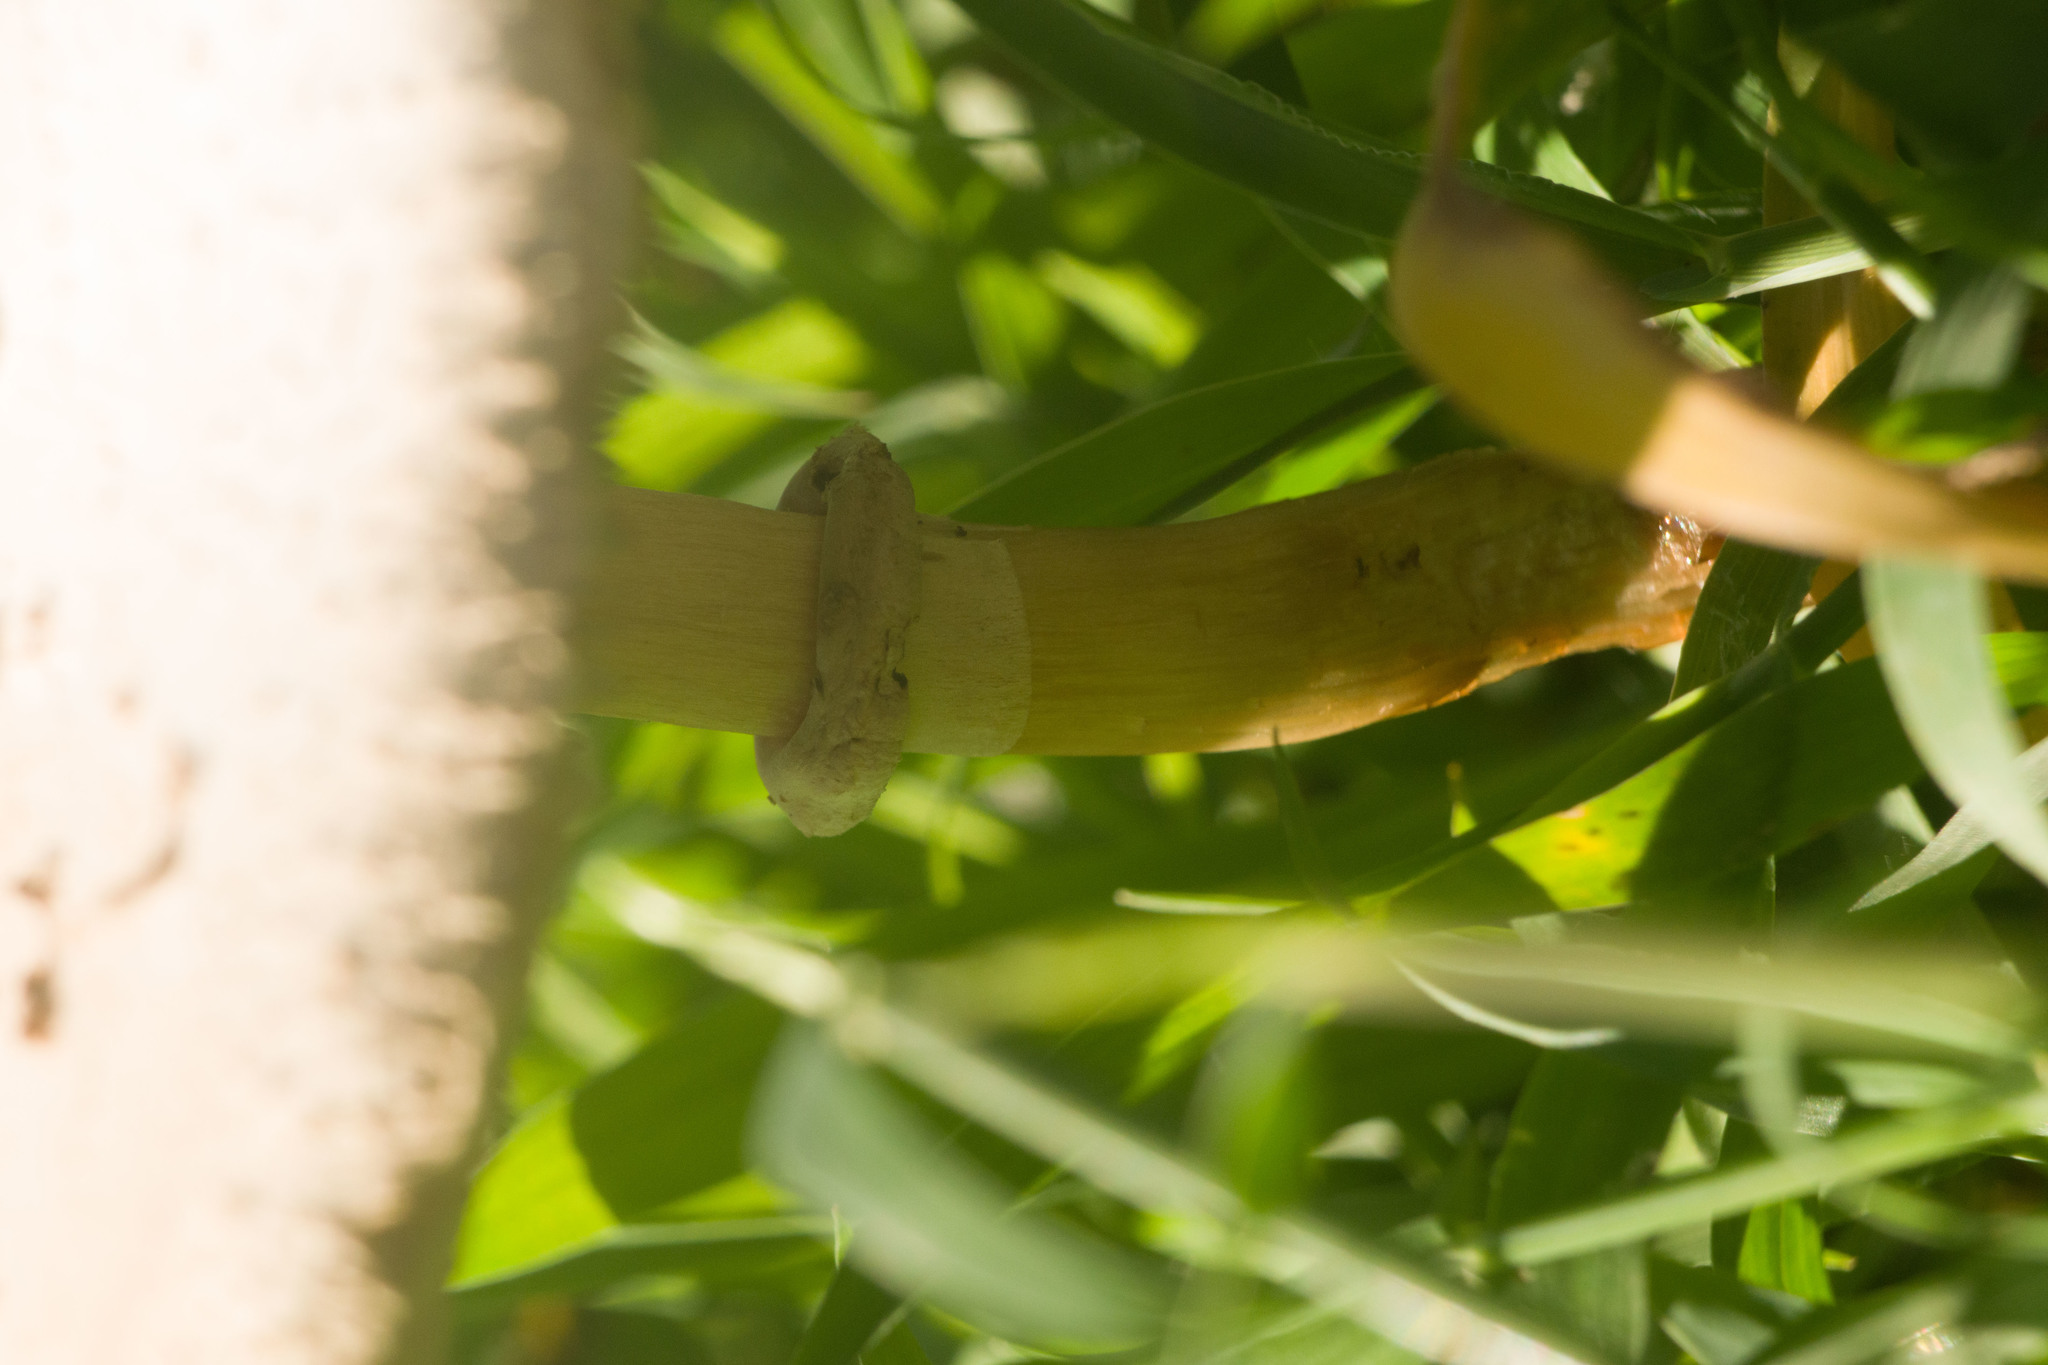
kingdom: Fungi
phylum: Basidiomycota
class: Agaricomycetes
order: Agaricales
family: Agaricaceae
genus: Chlorophyllum
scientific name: Chlorophyllum molybdites
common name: False parasol
